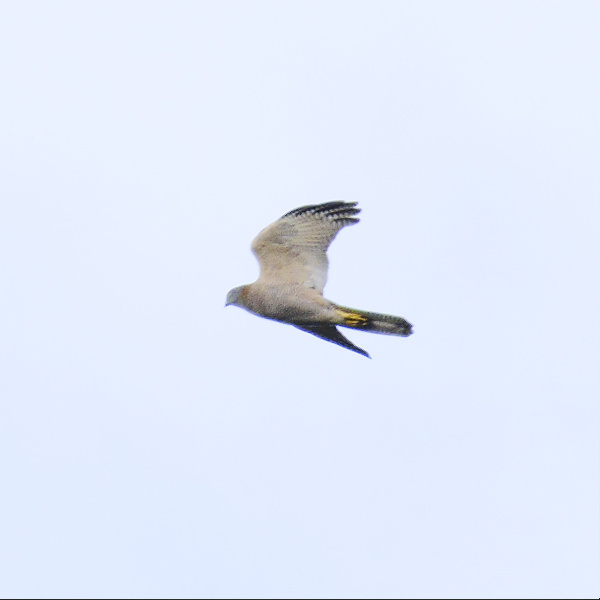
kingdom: Animalia
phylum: Chordata
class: Aves
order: Accipitriformes
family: Accipitridae
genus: Accipiter
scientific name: Accipiter fasciatus
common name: Brown goshawk
